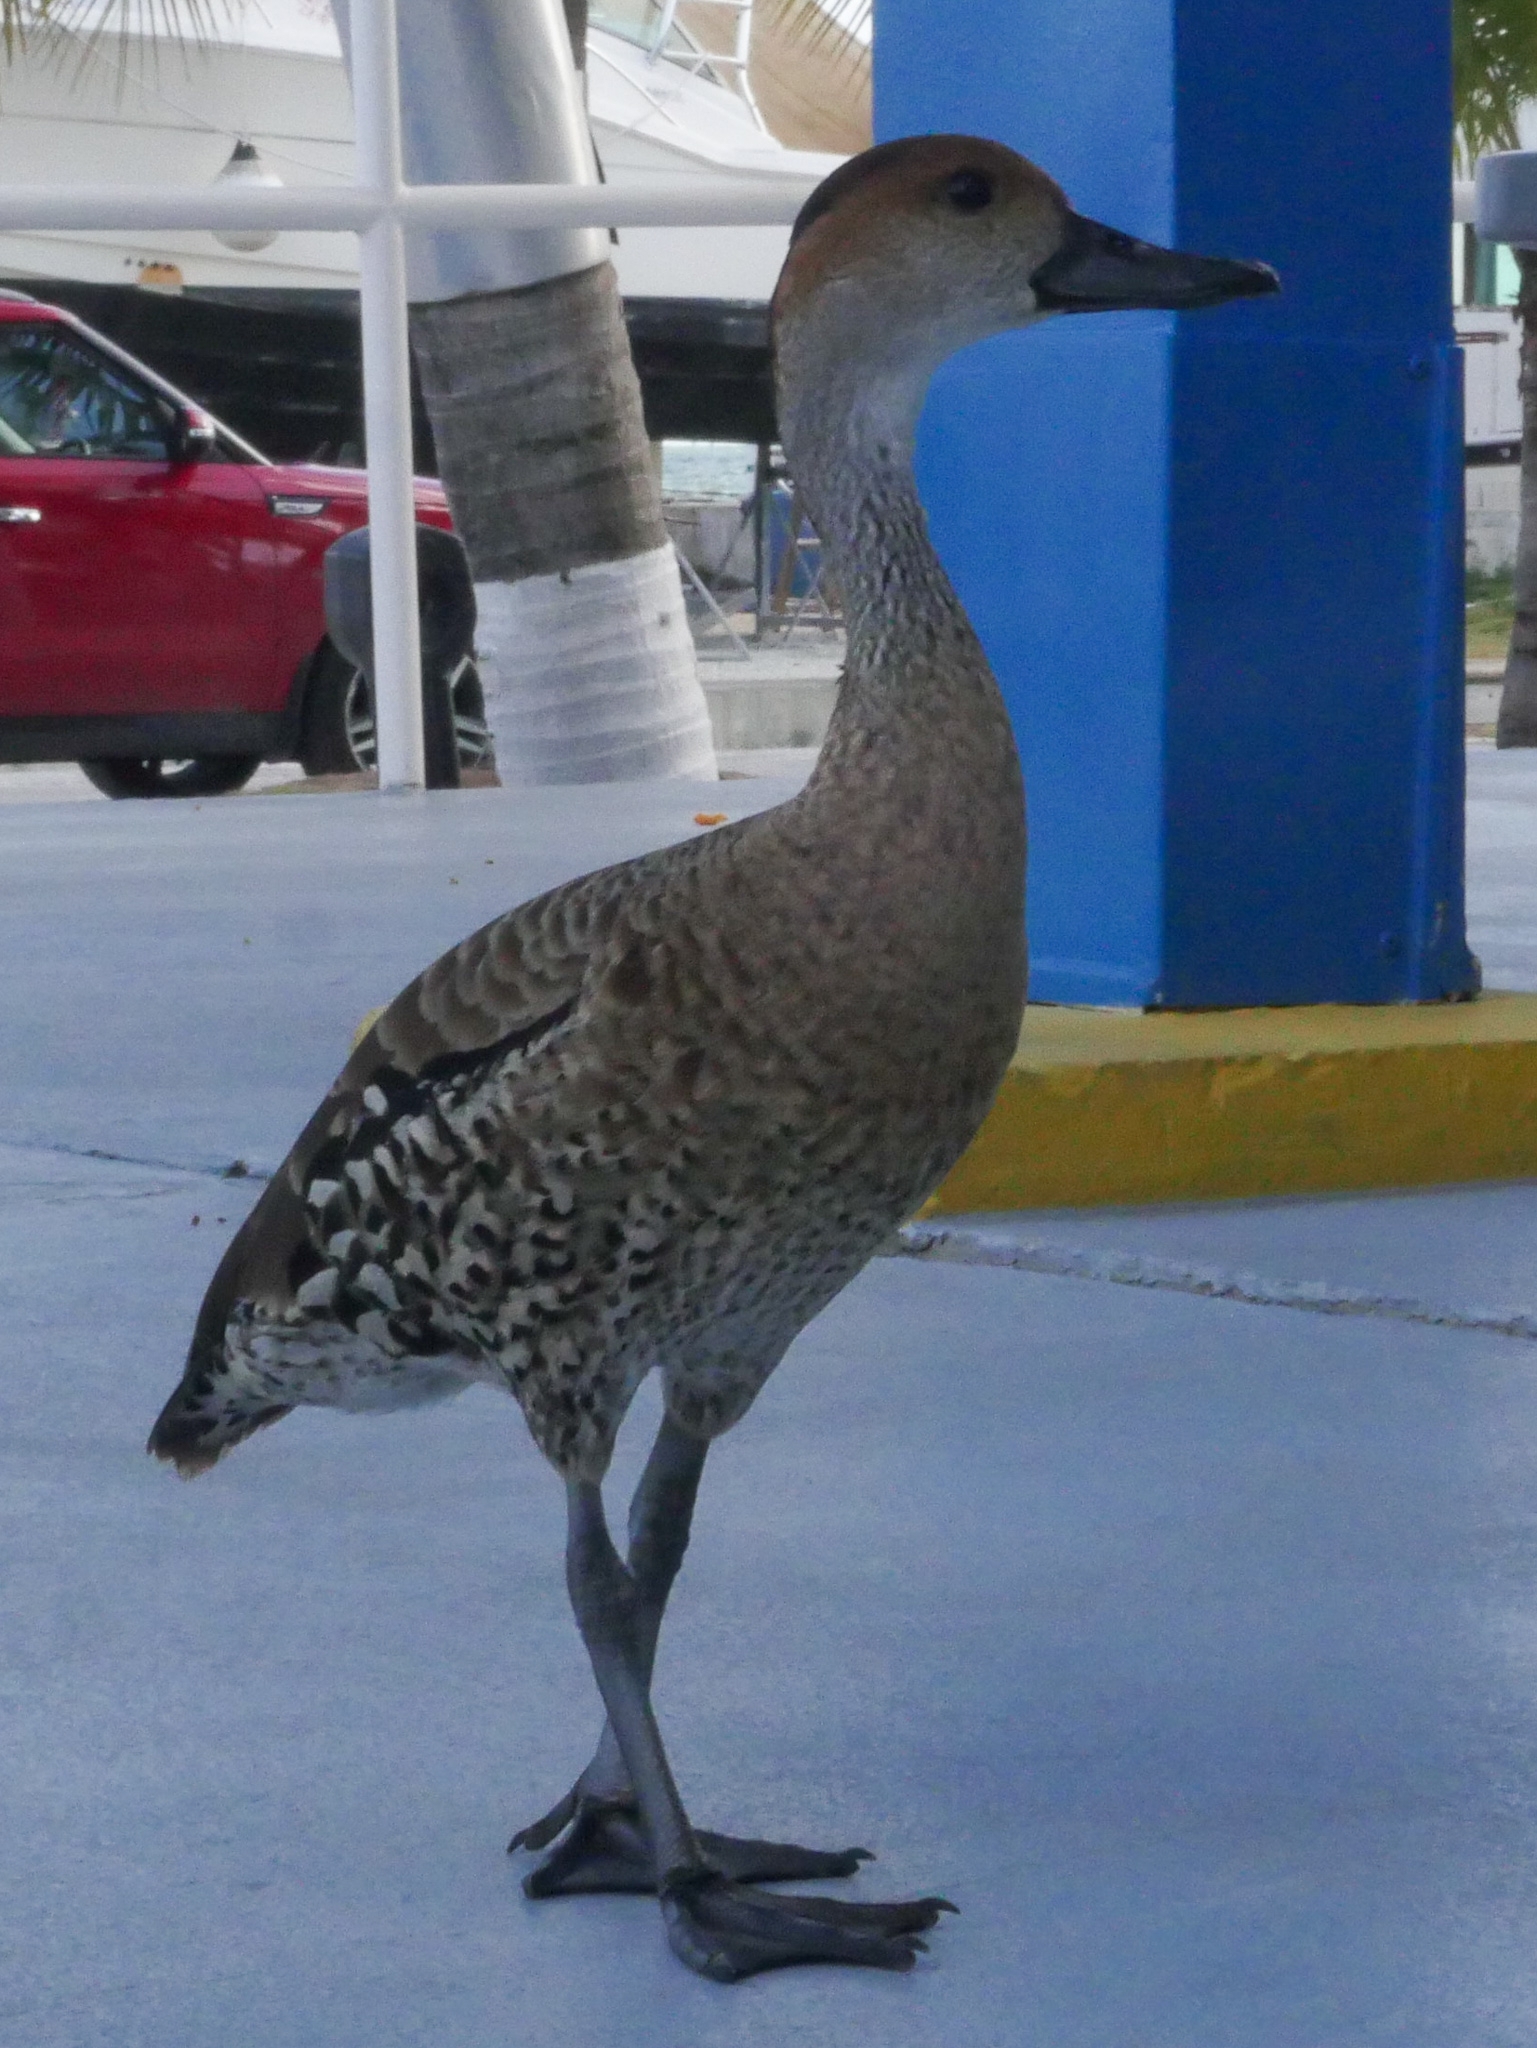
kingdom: Animalia
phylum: Chordata
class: Aves
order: Anseriformes
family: Anatidae
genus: Dendrocygna
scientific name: Dendrocygna arborea
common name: West indian whistling duck
